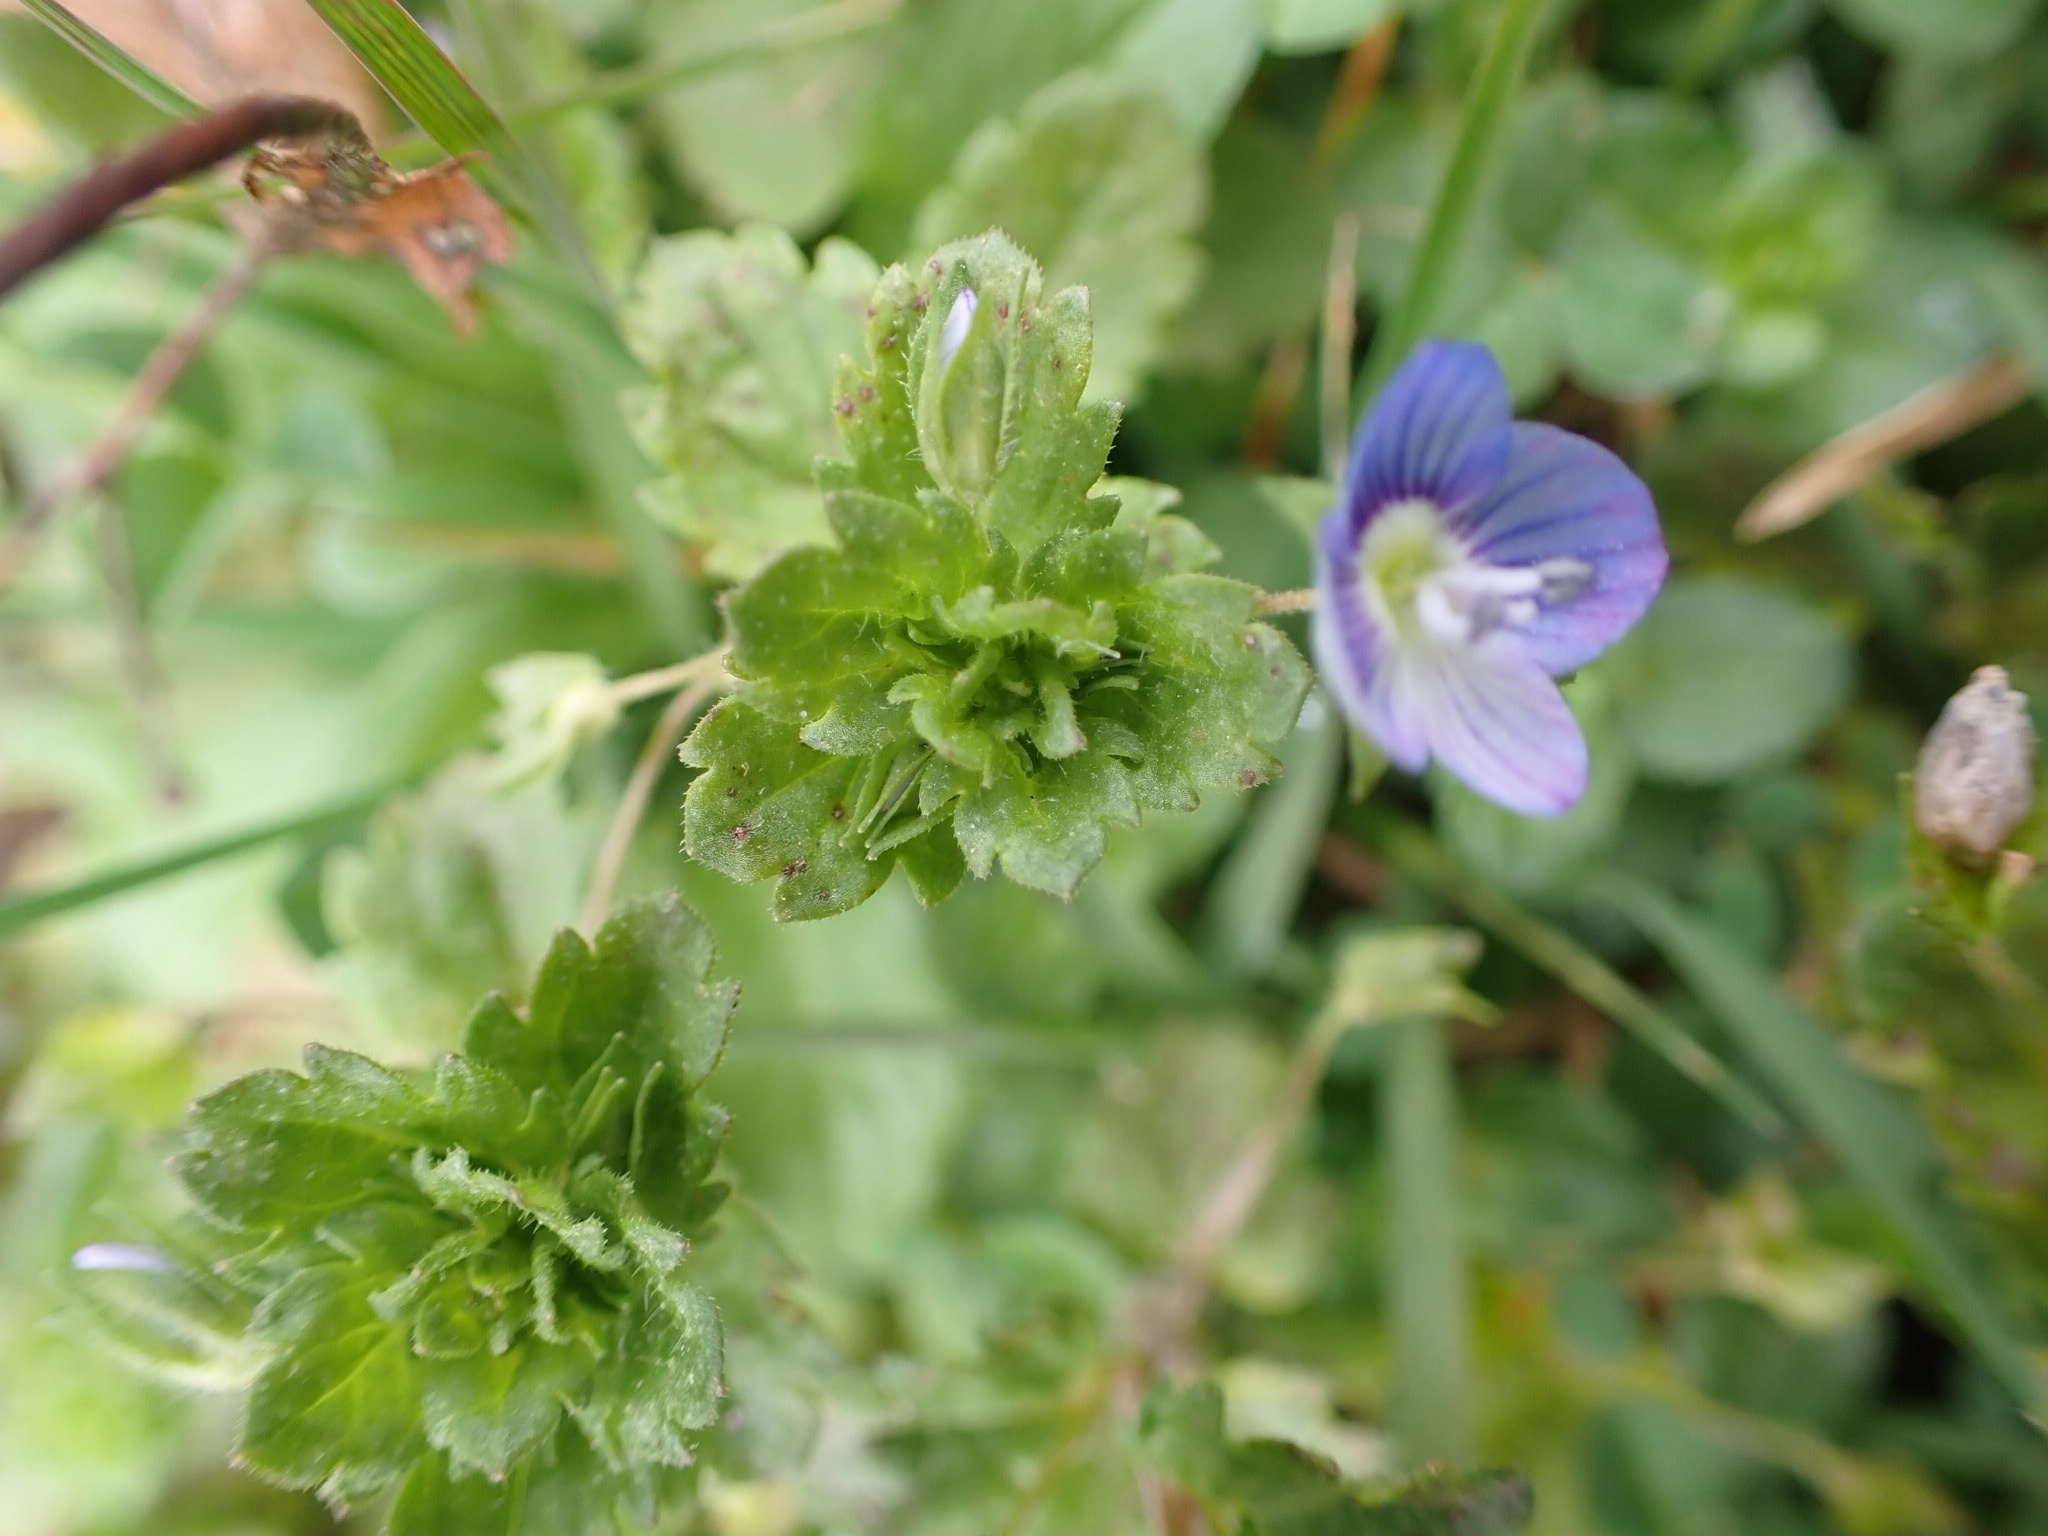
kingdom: Plantae
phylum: Tracheophyta
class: Magnoliopsida
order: Lamiales
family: Plantaginaceae
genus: Veronica
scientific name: Veronica persica
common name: Common field-speedwell
